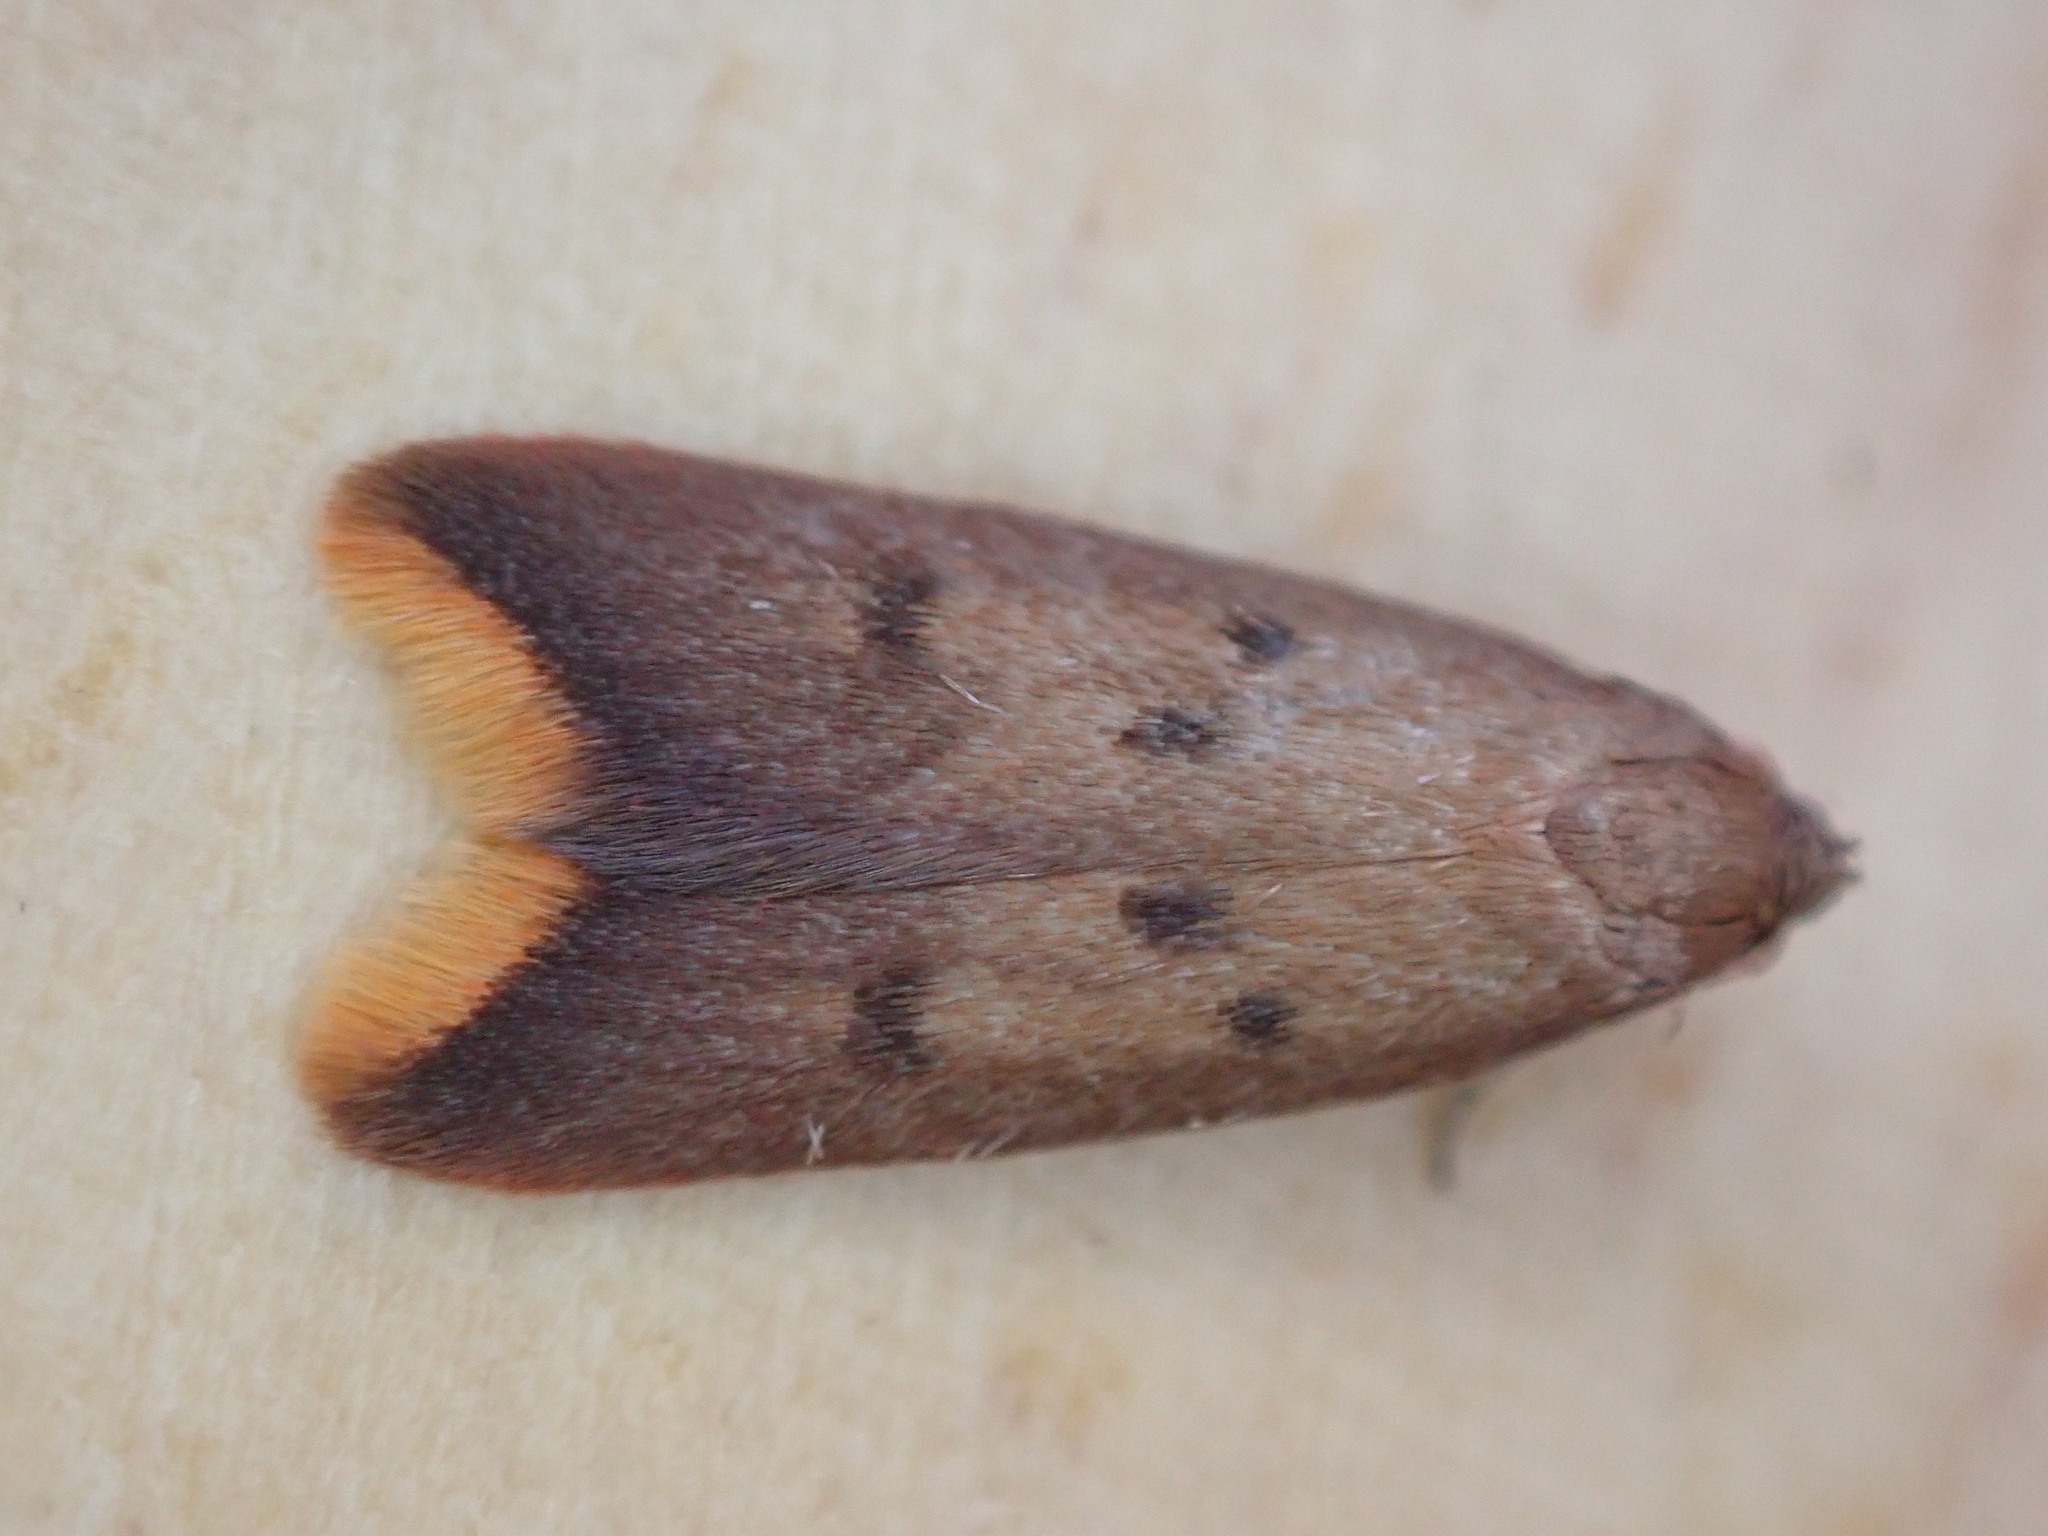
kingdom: Animalia
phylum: Arthropoda
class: Insecta
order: Lepidoptera
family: Oecophoridae
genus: Tachystola
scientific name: Tachystola acroxantha
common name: Ruddy streak
